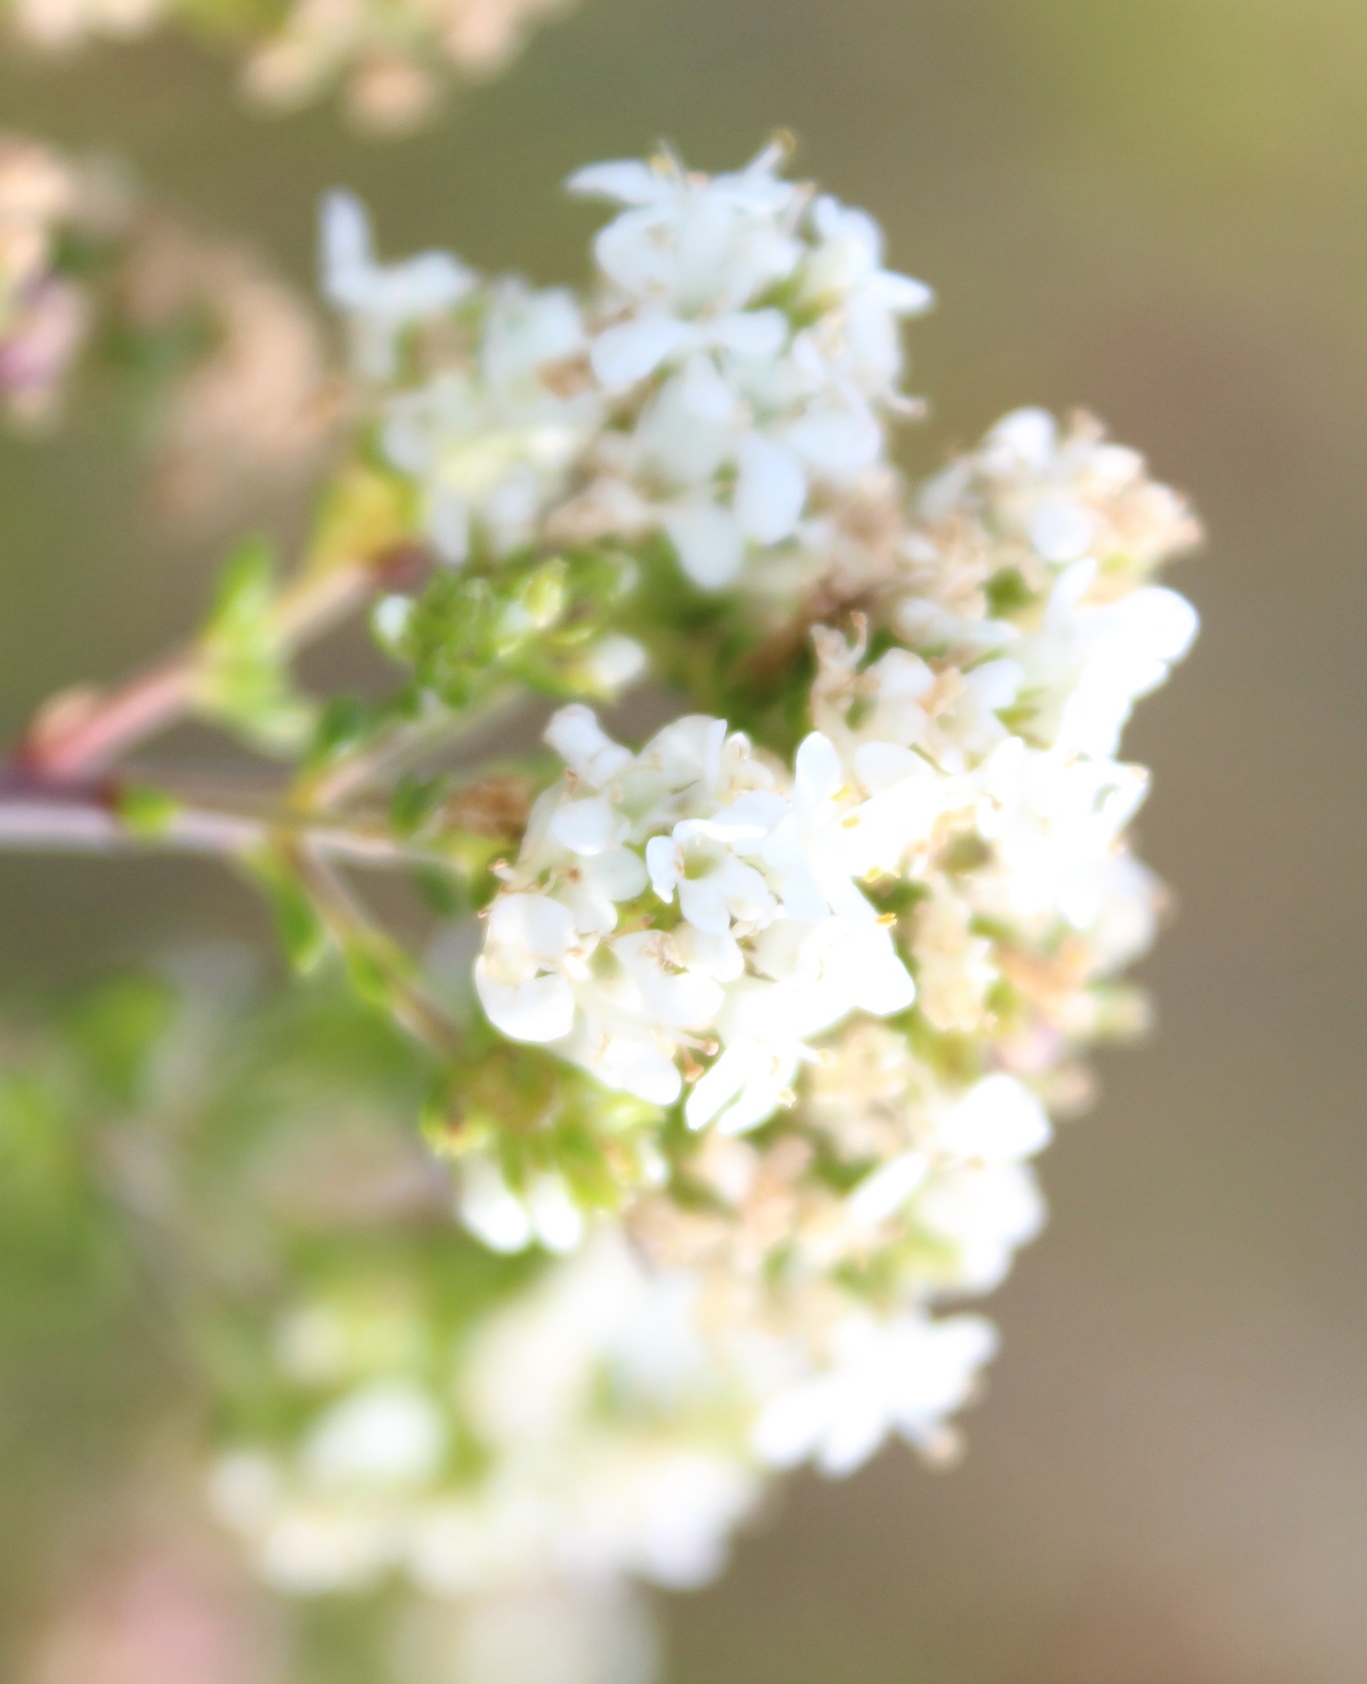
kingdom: Plantae
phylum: Tracheophyta
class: Magnoliopsida
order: Lamiales
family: Scrophulariaceae
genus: Selago
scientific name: Selago glomerata
